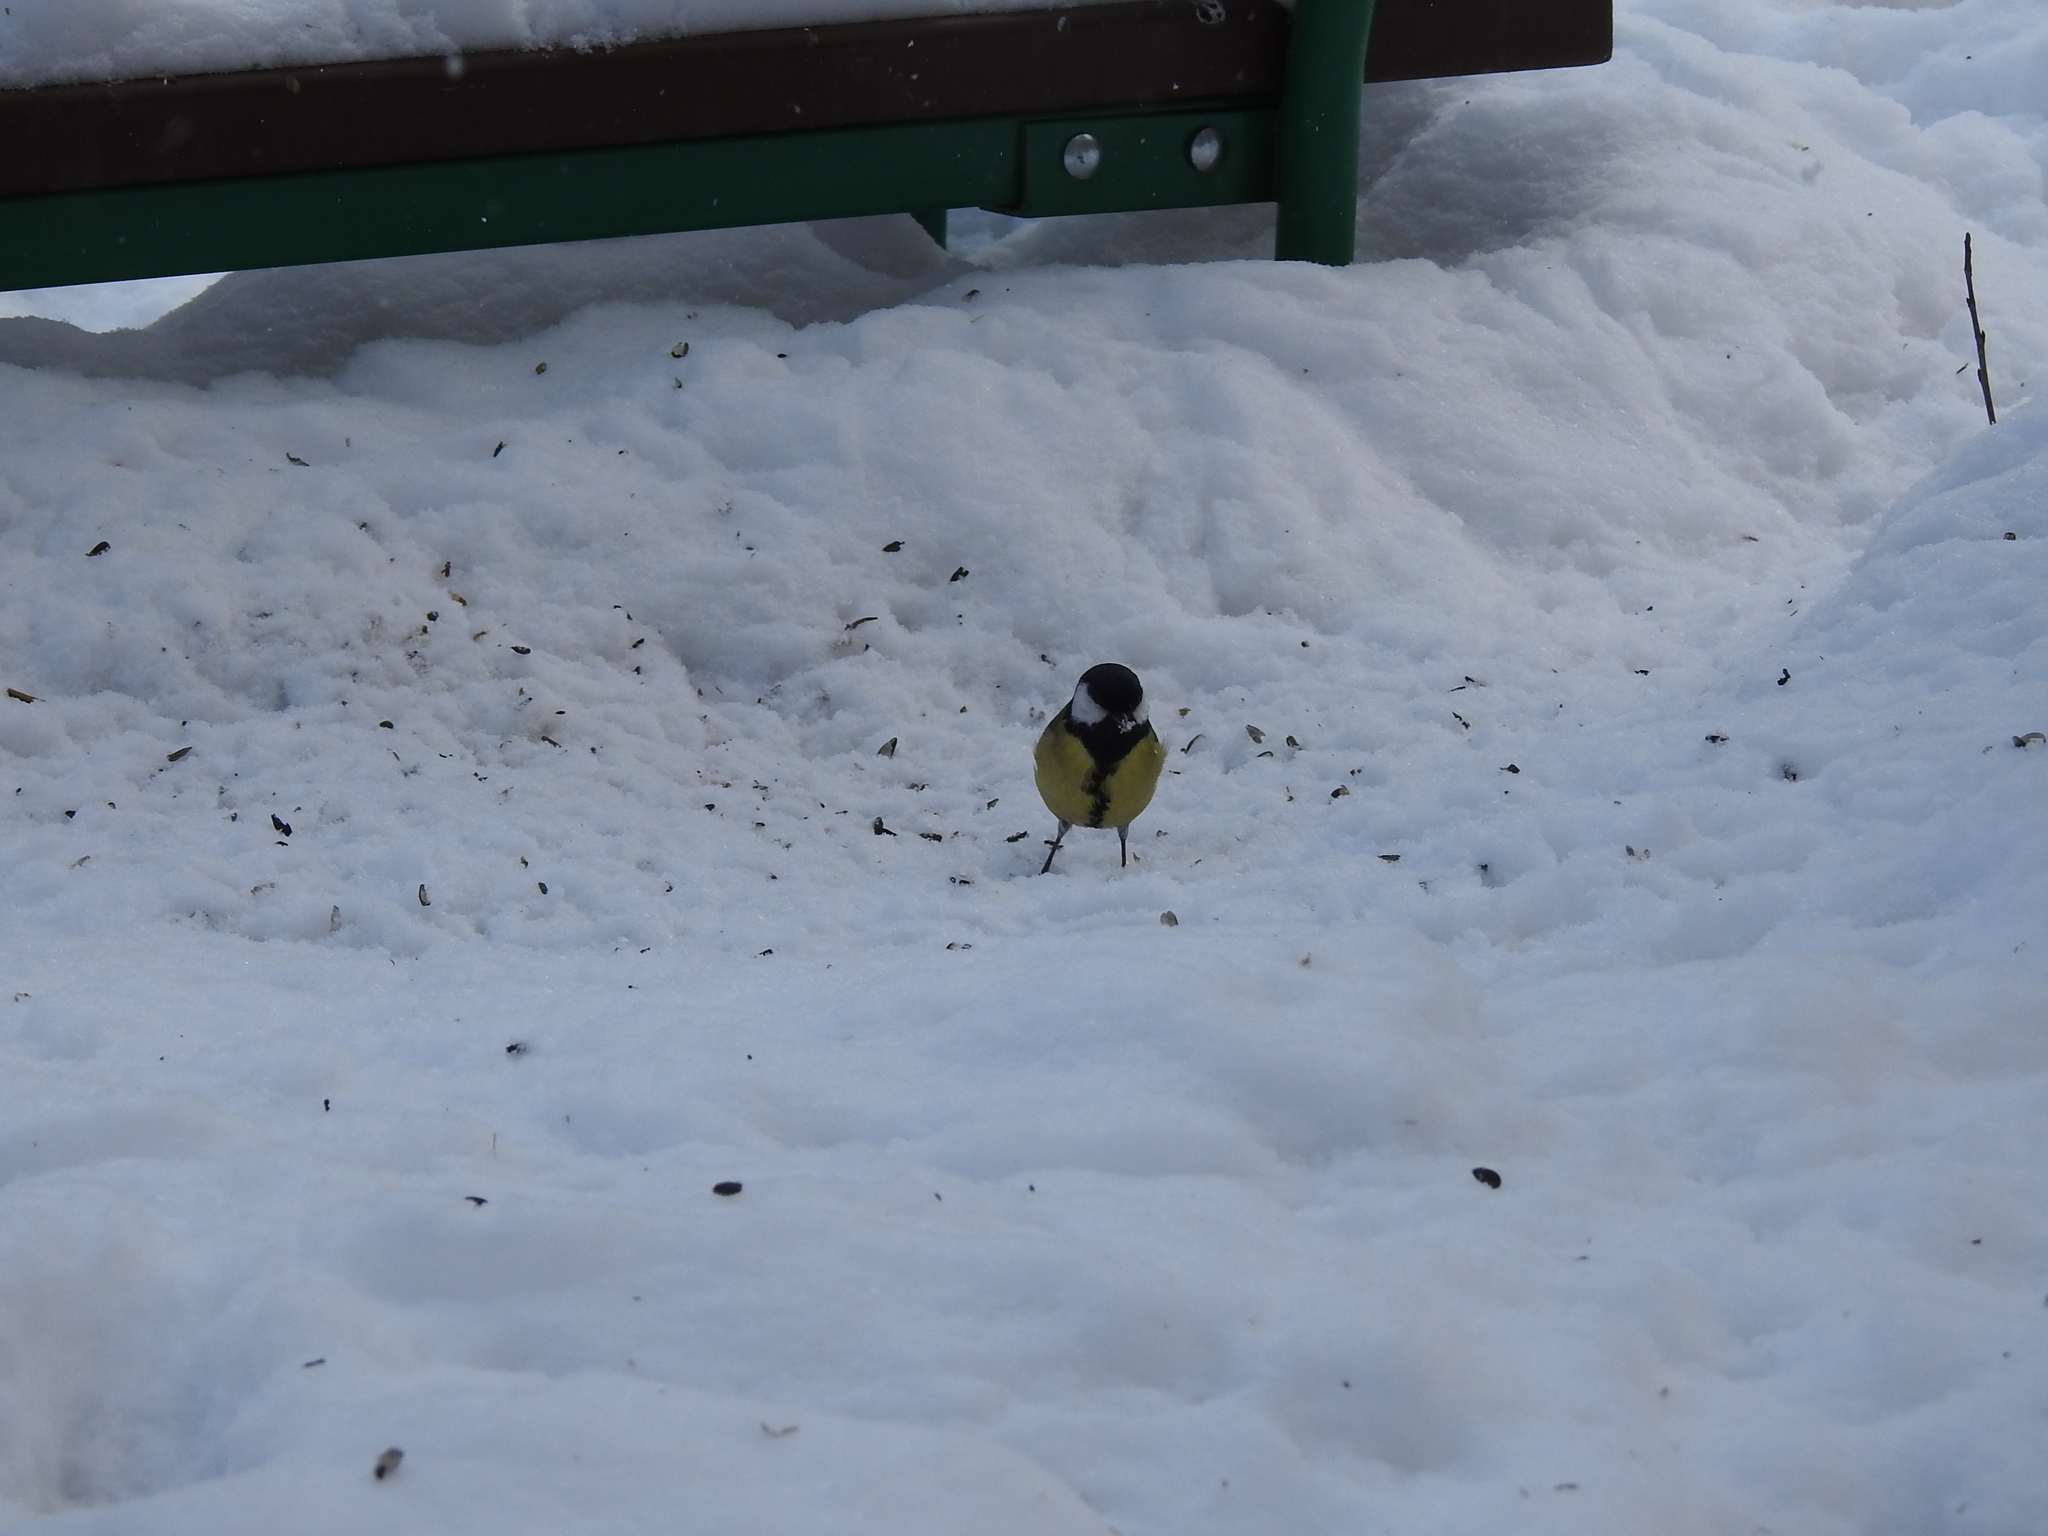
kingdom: Animalia
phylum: Chordata
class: Aves
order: Passeriformes
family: Paridae
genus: Parus
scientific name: Parus major
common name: Great tit
